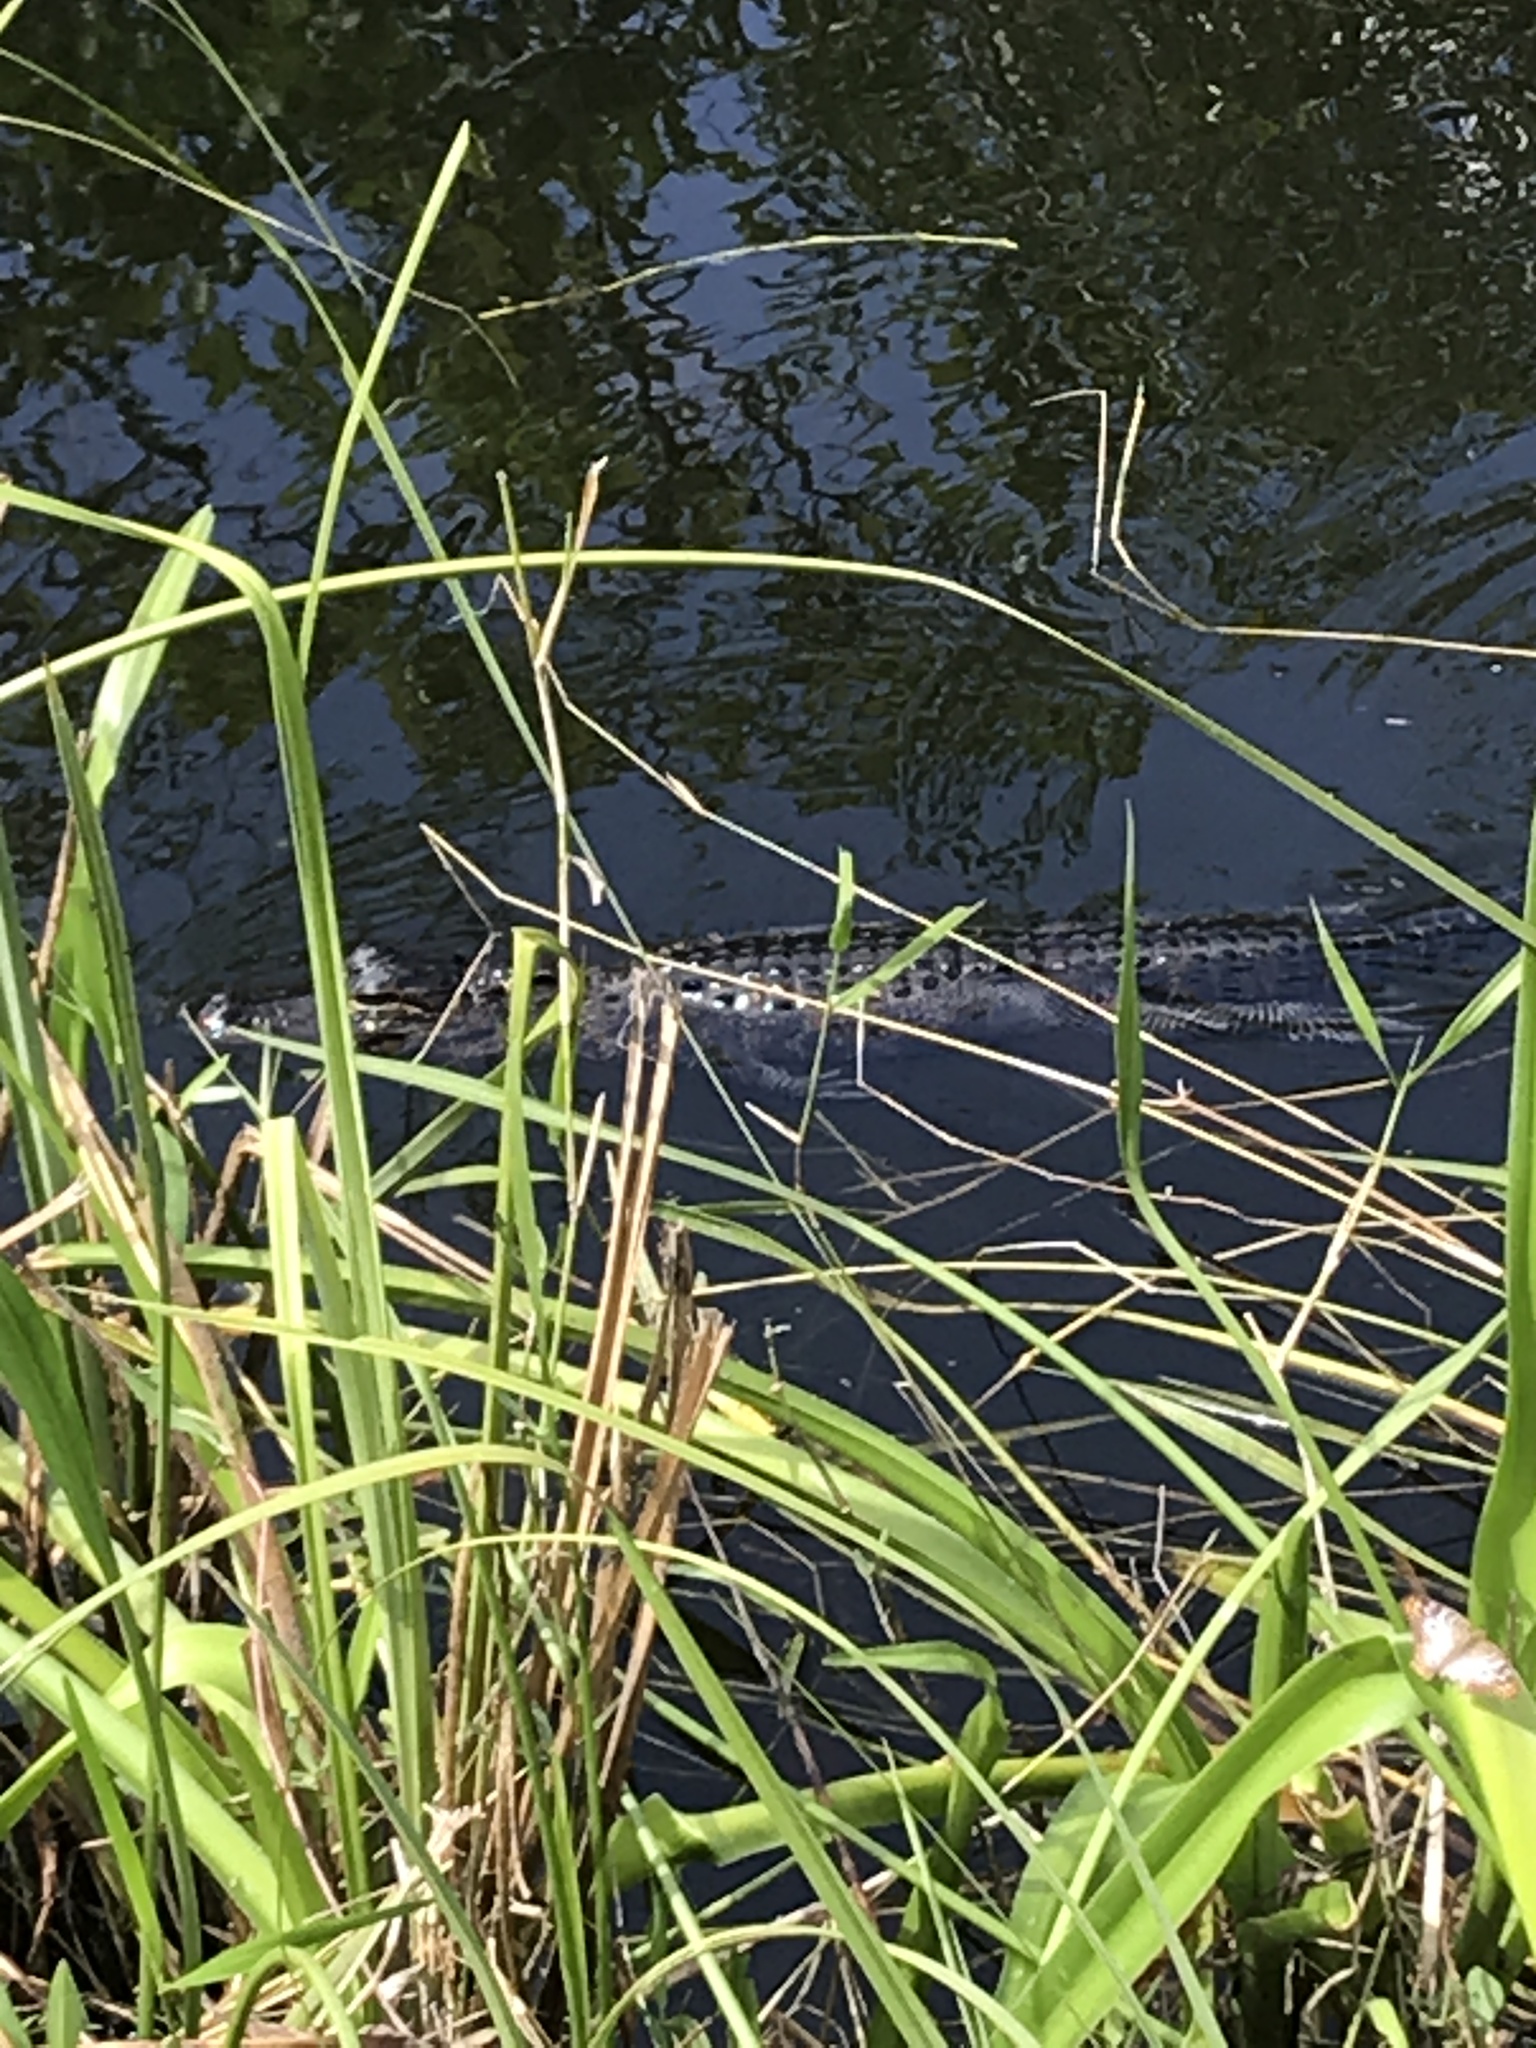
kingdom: Animalia
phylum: Chordata
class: Crocodylia
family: Alligatoridae
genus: Alligator
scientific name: Alligator mississippiensis
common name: American alligator
